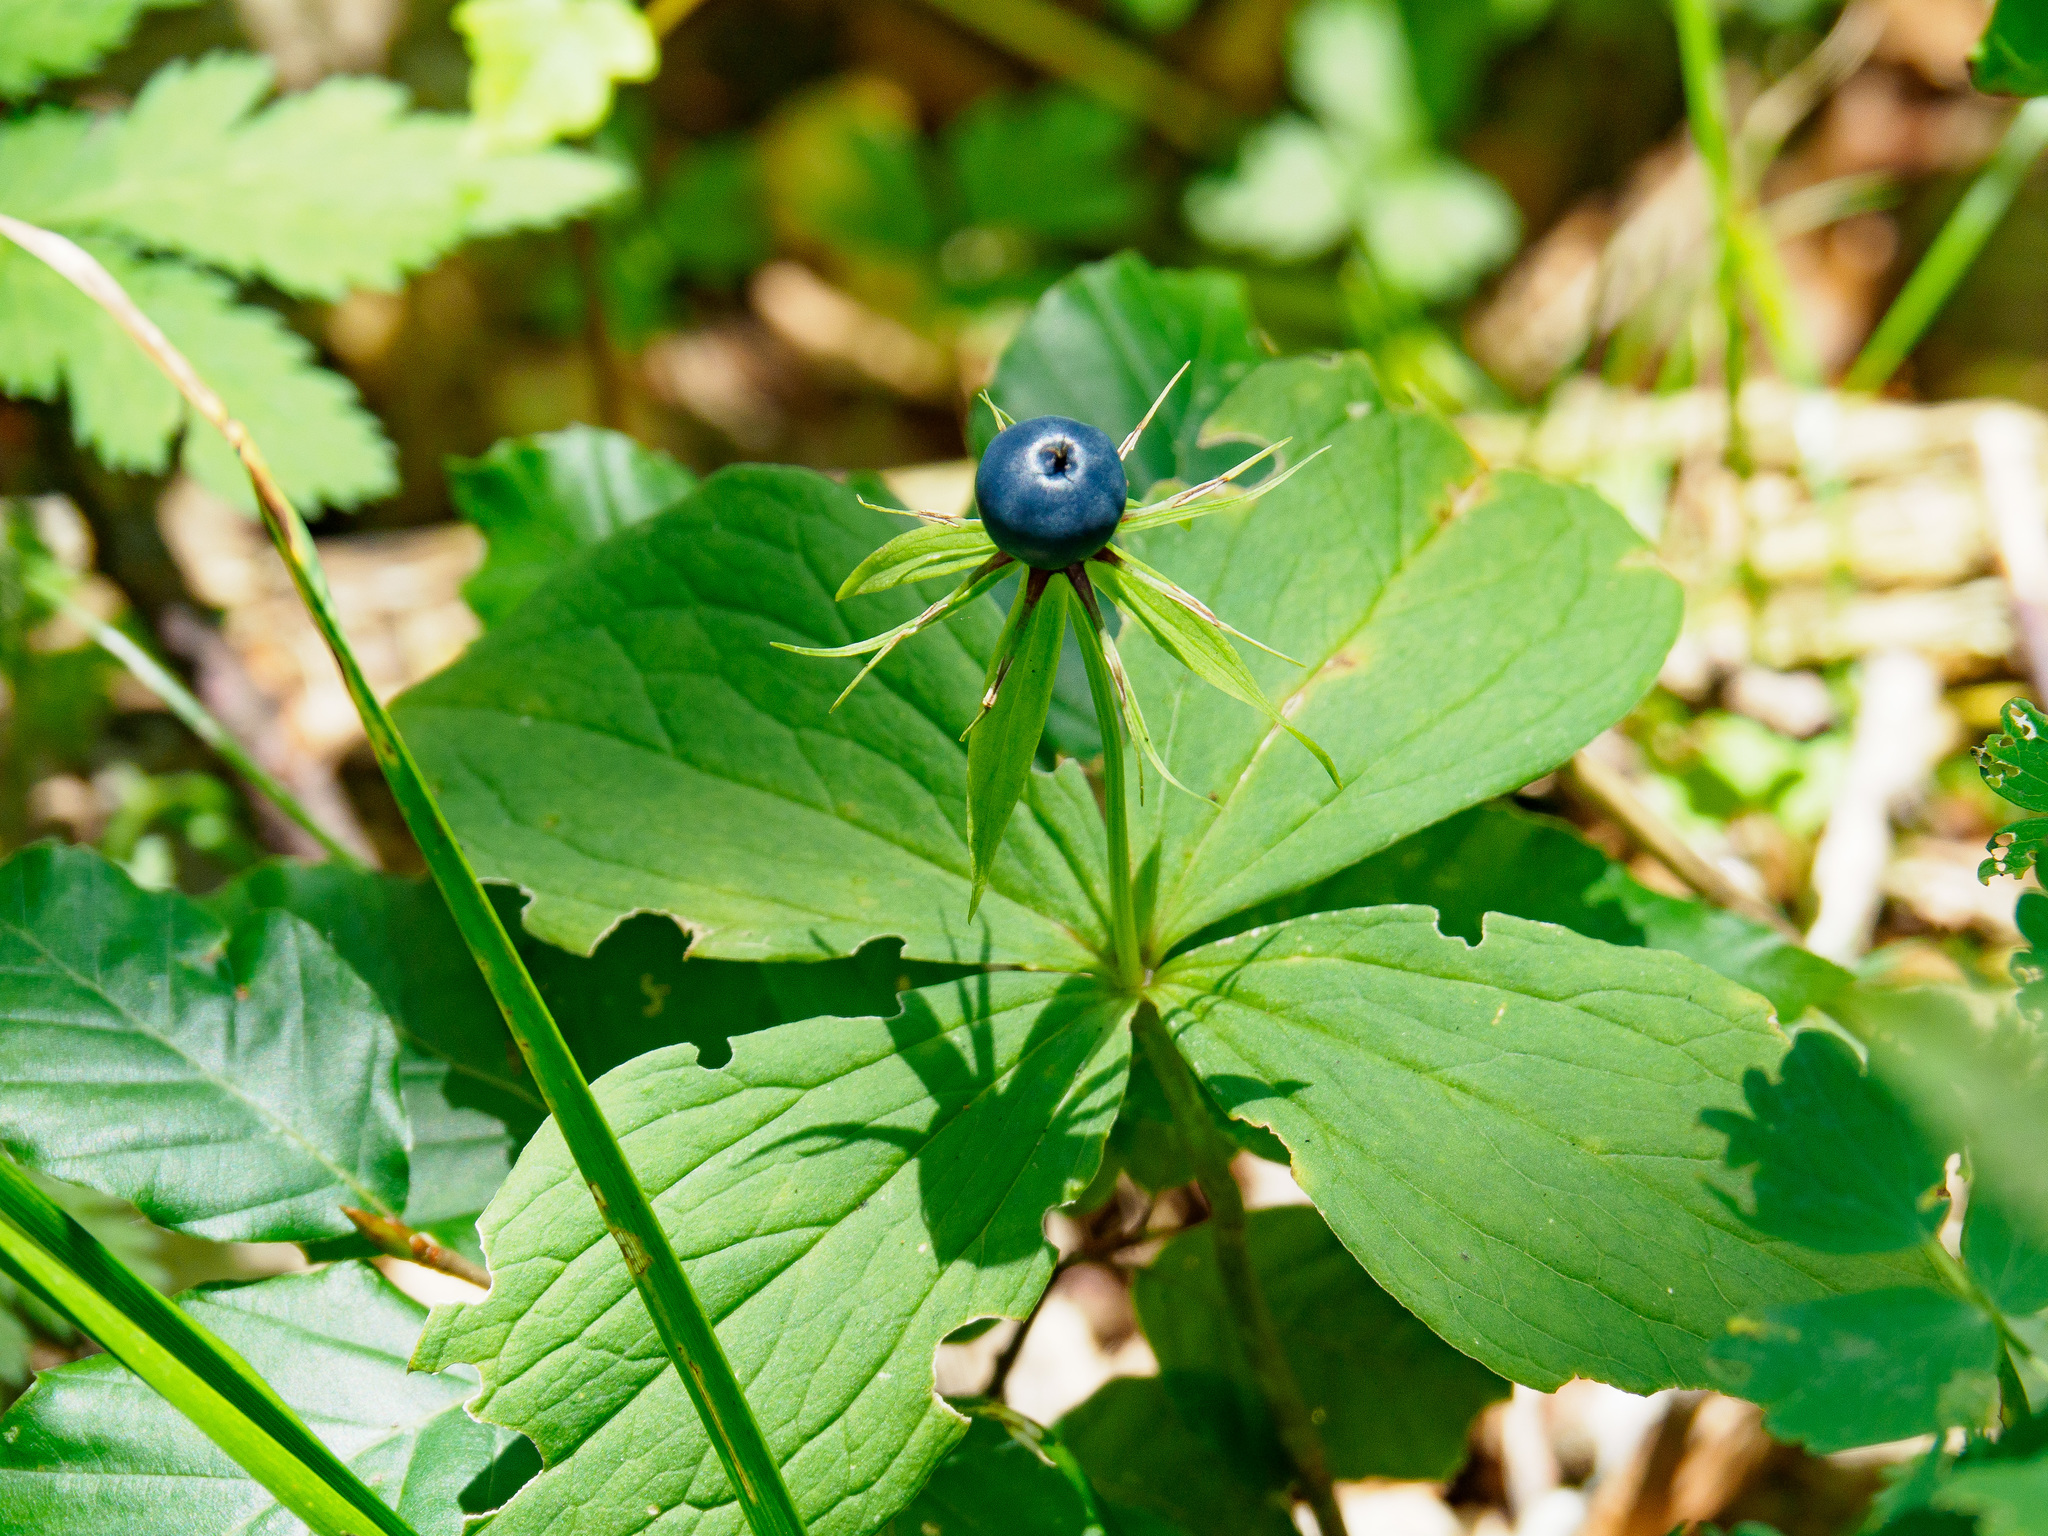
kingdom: Plantae
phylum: Tracheophyta
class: Liliopsida
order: Liliales
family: Melanthiaceae
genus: Paris
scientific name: Paris quadrifolia
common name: Herb-paris
